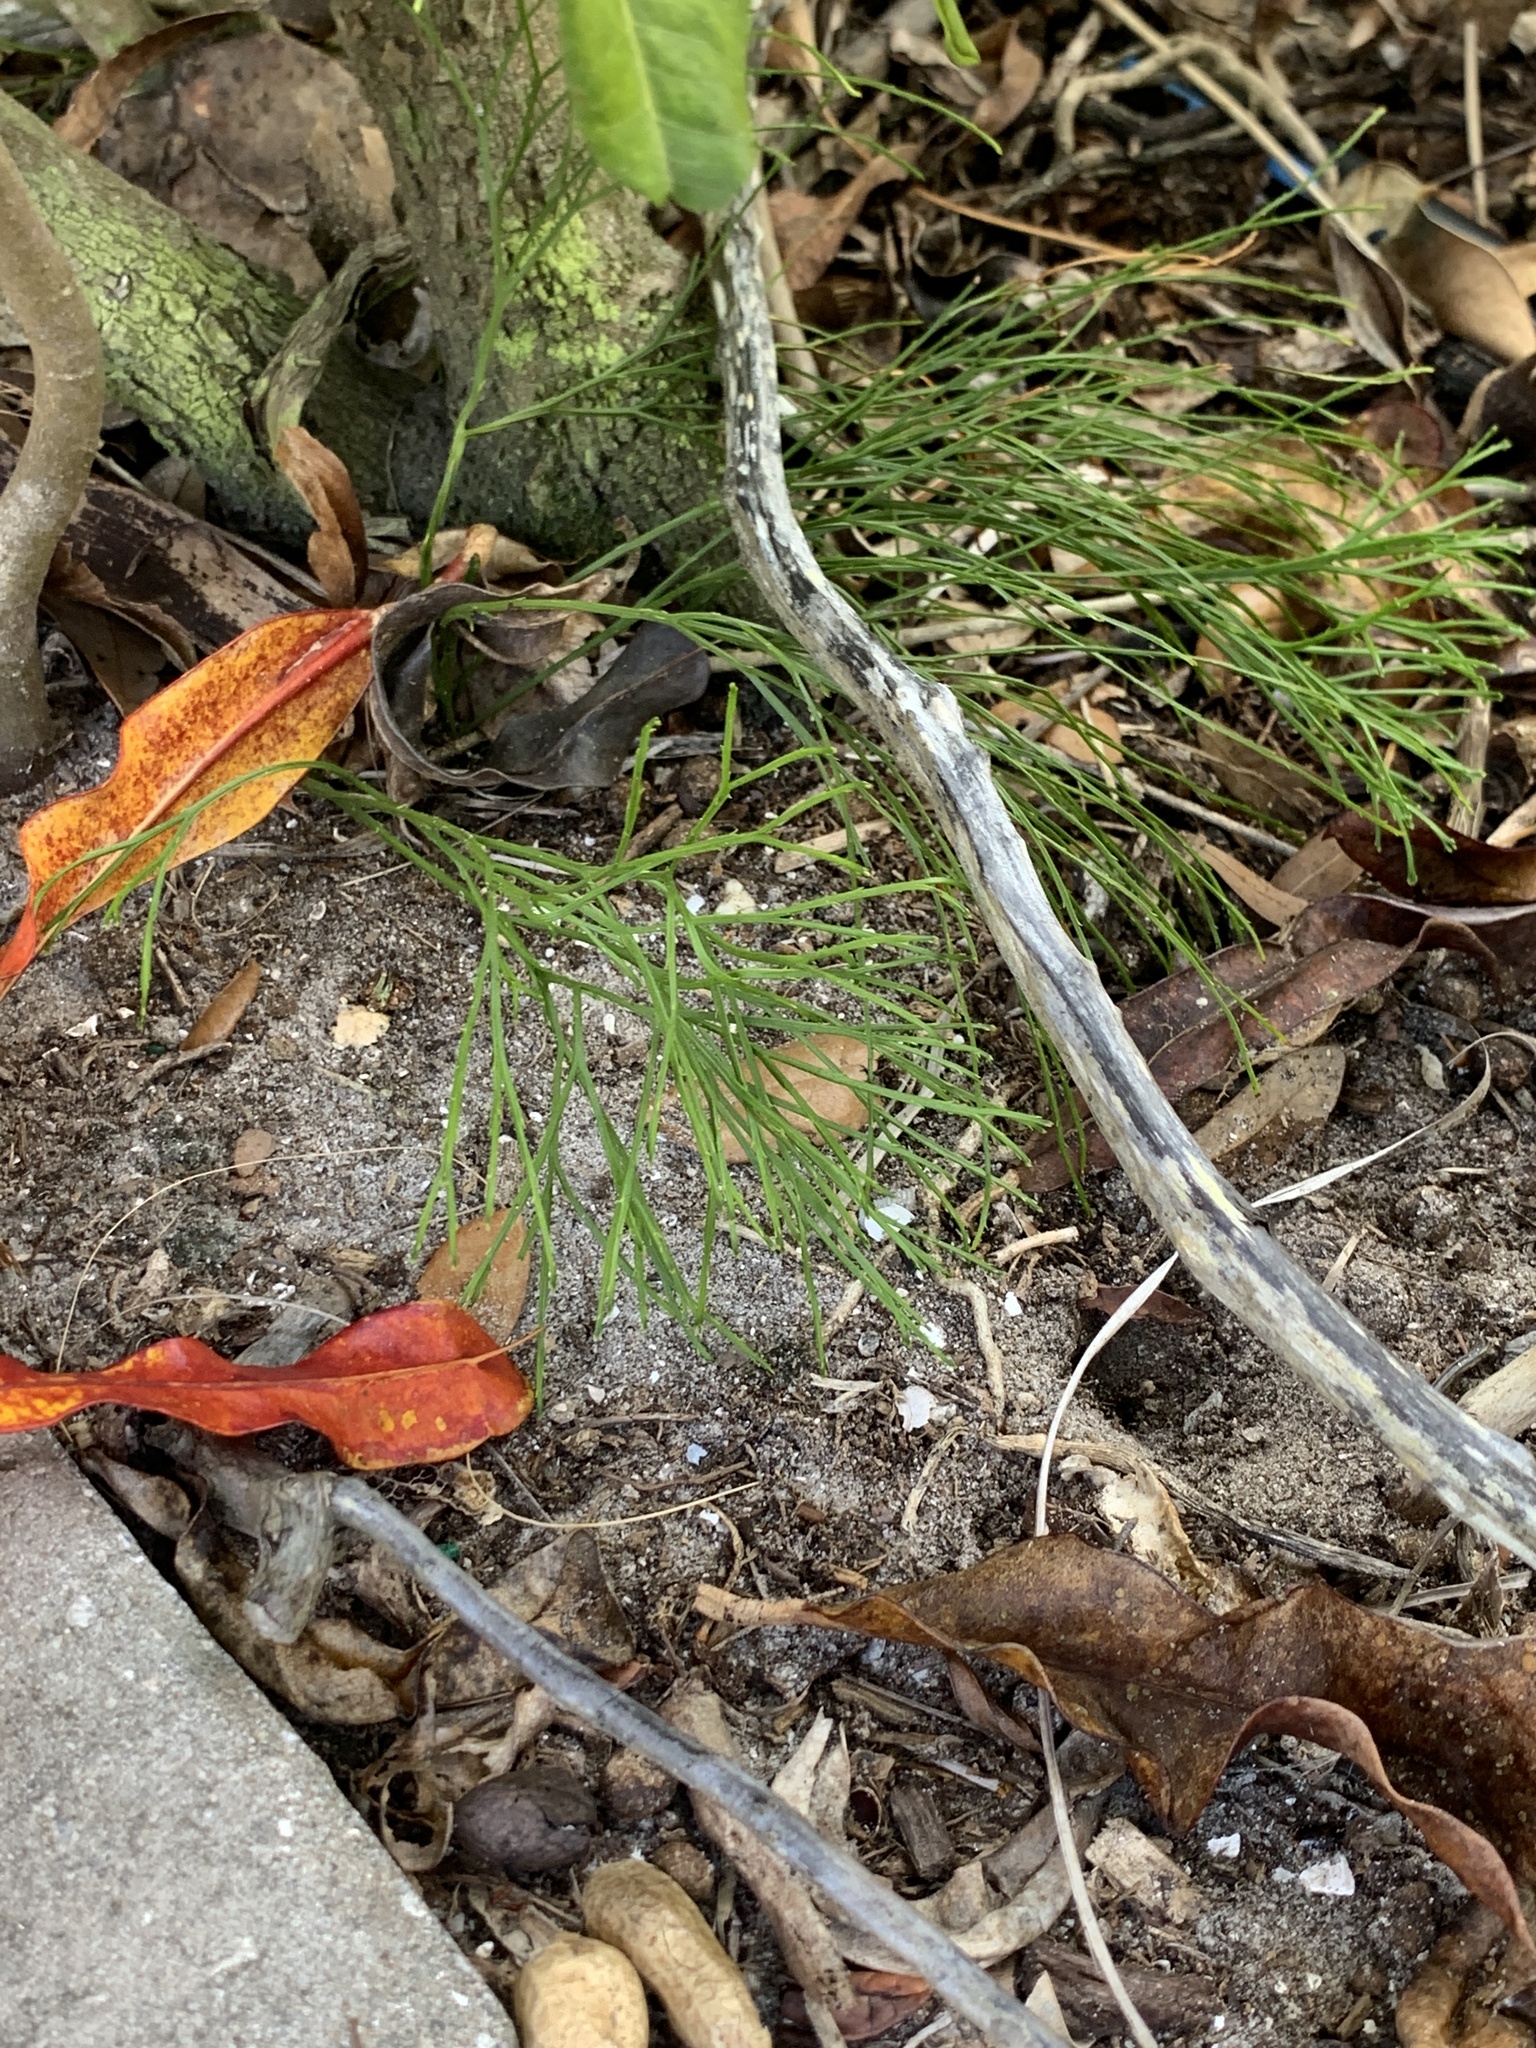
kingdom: Plantae
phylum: Tracheophyta
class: Polypodiopsida
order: Psilotales
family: Psilotaceae
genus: Psilotum
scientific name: Psilotum nudum
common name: Skeleton fork fern
